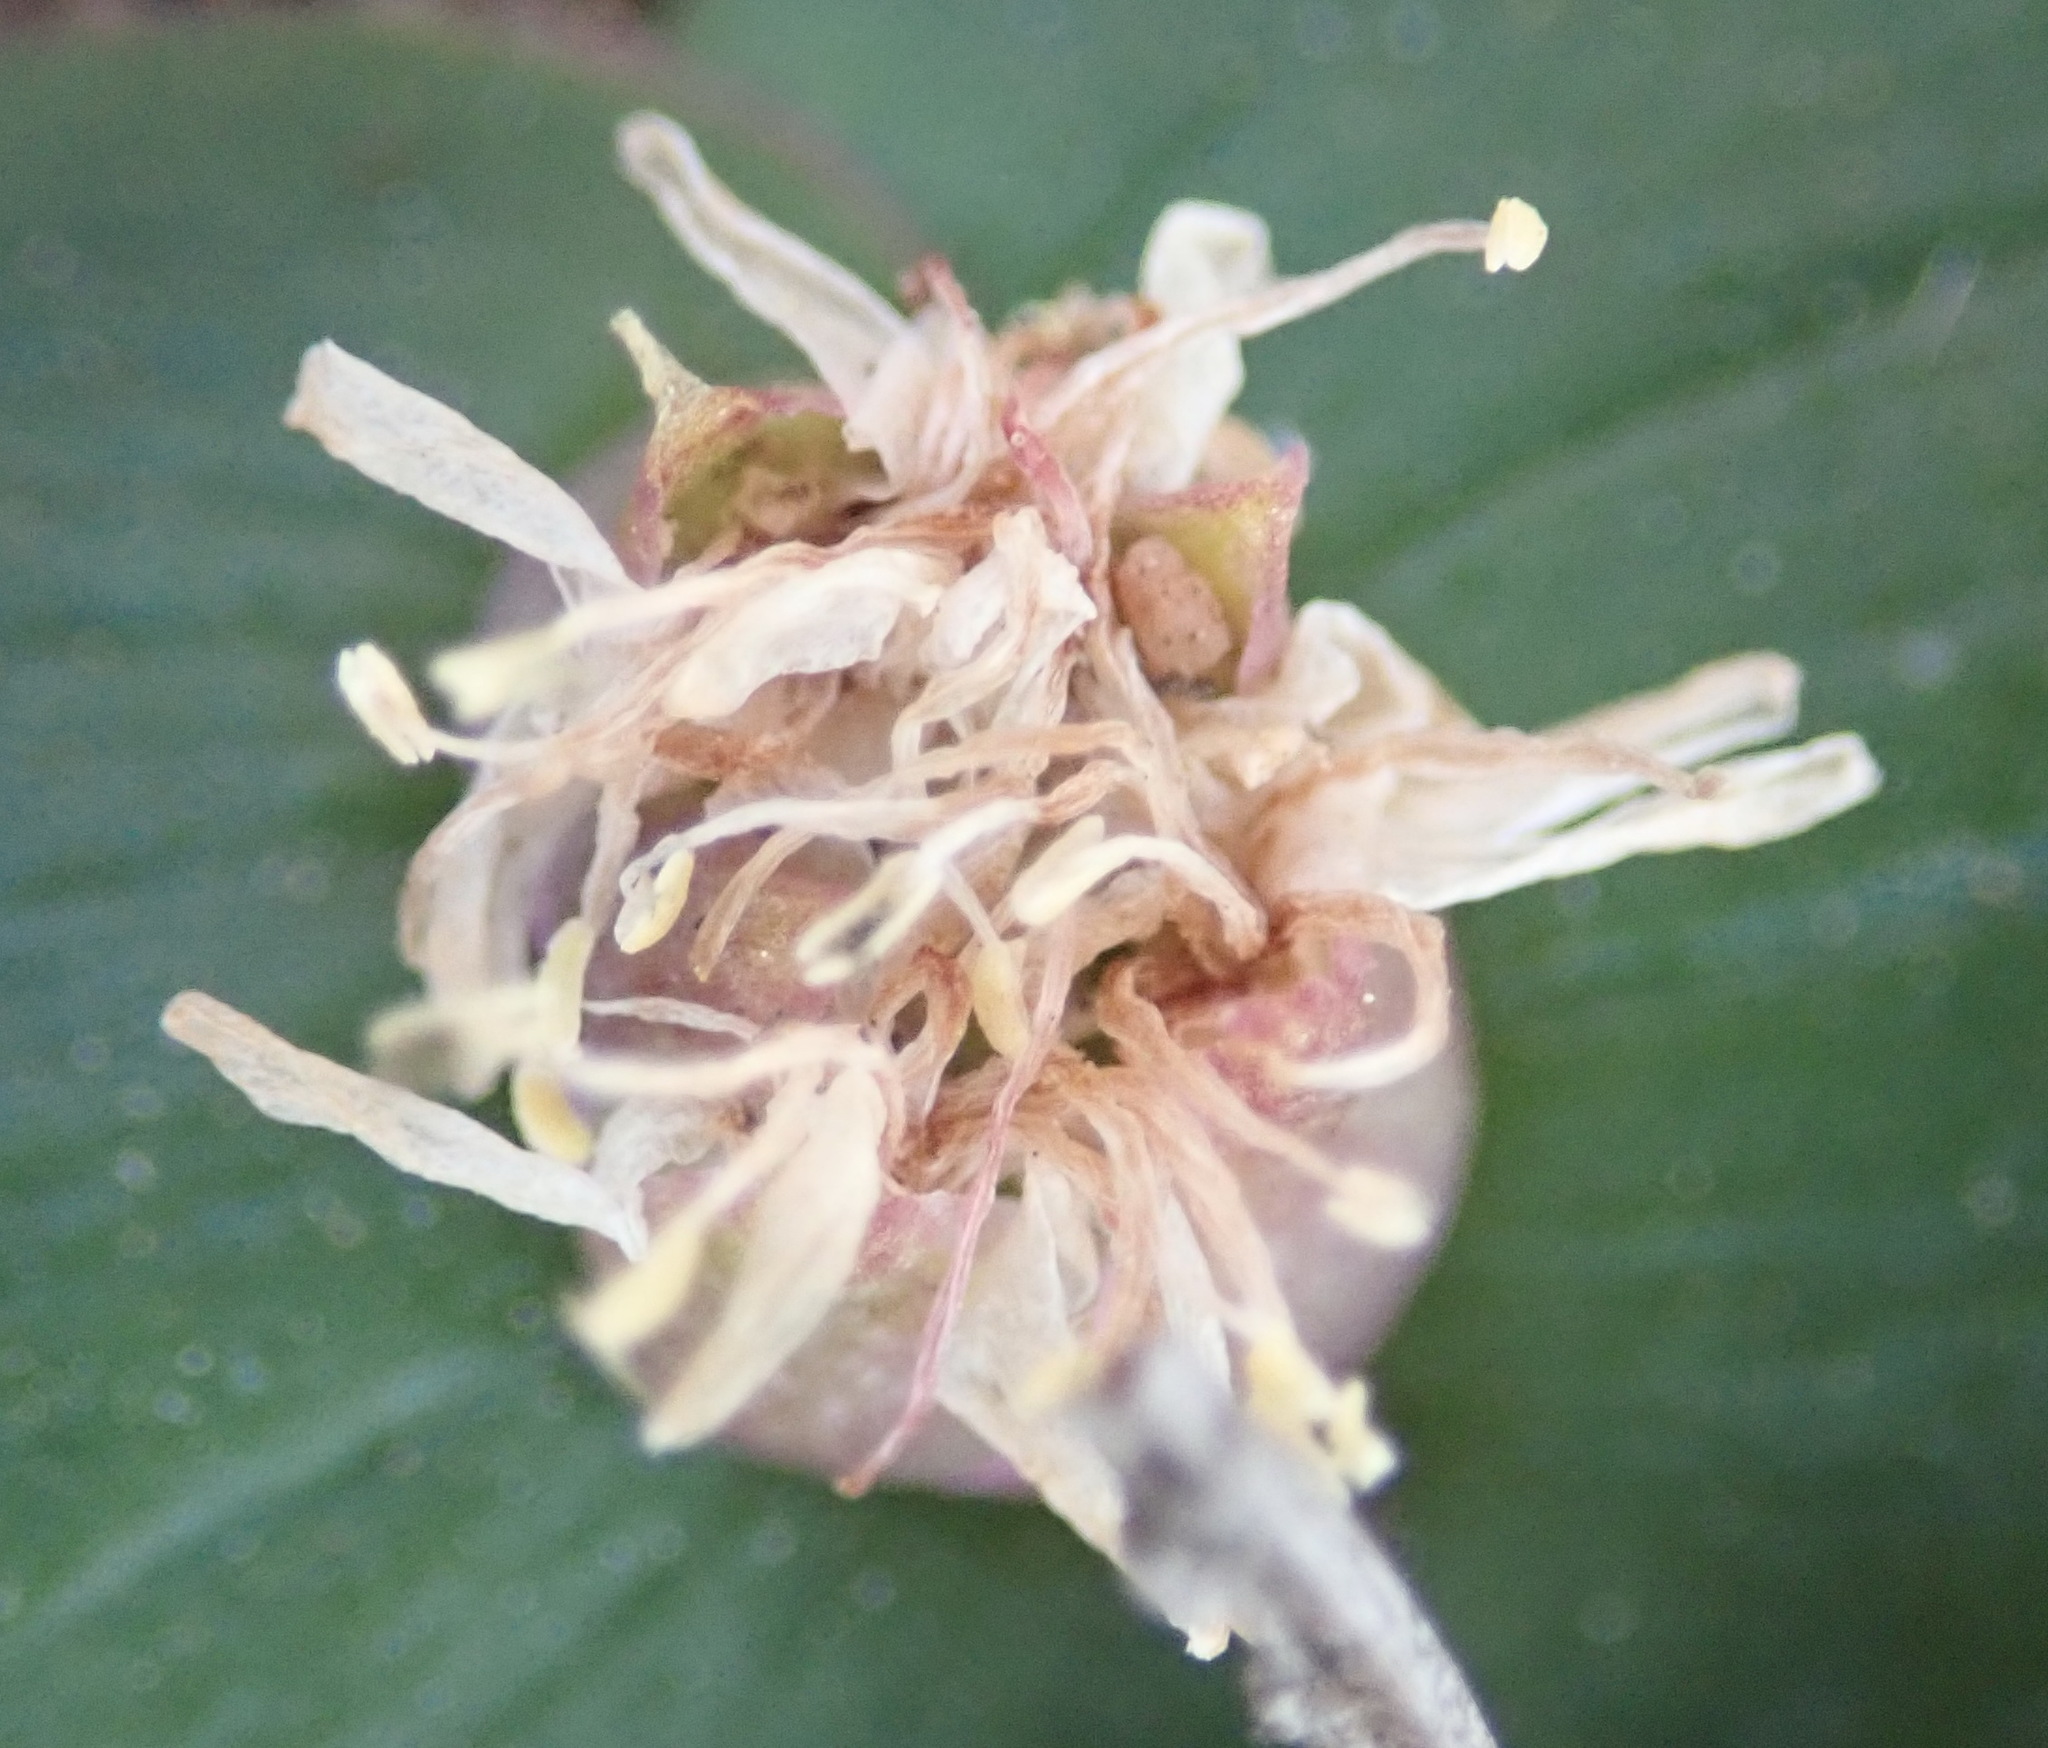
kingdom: Plantae
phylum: Tracheophyta
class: Liliopsida
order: Asparagales
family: Asparagaceae
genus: Massonia
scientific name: Massonia depressa
